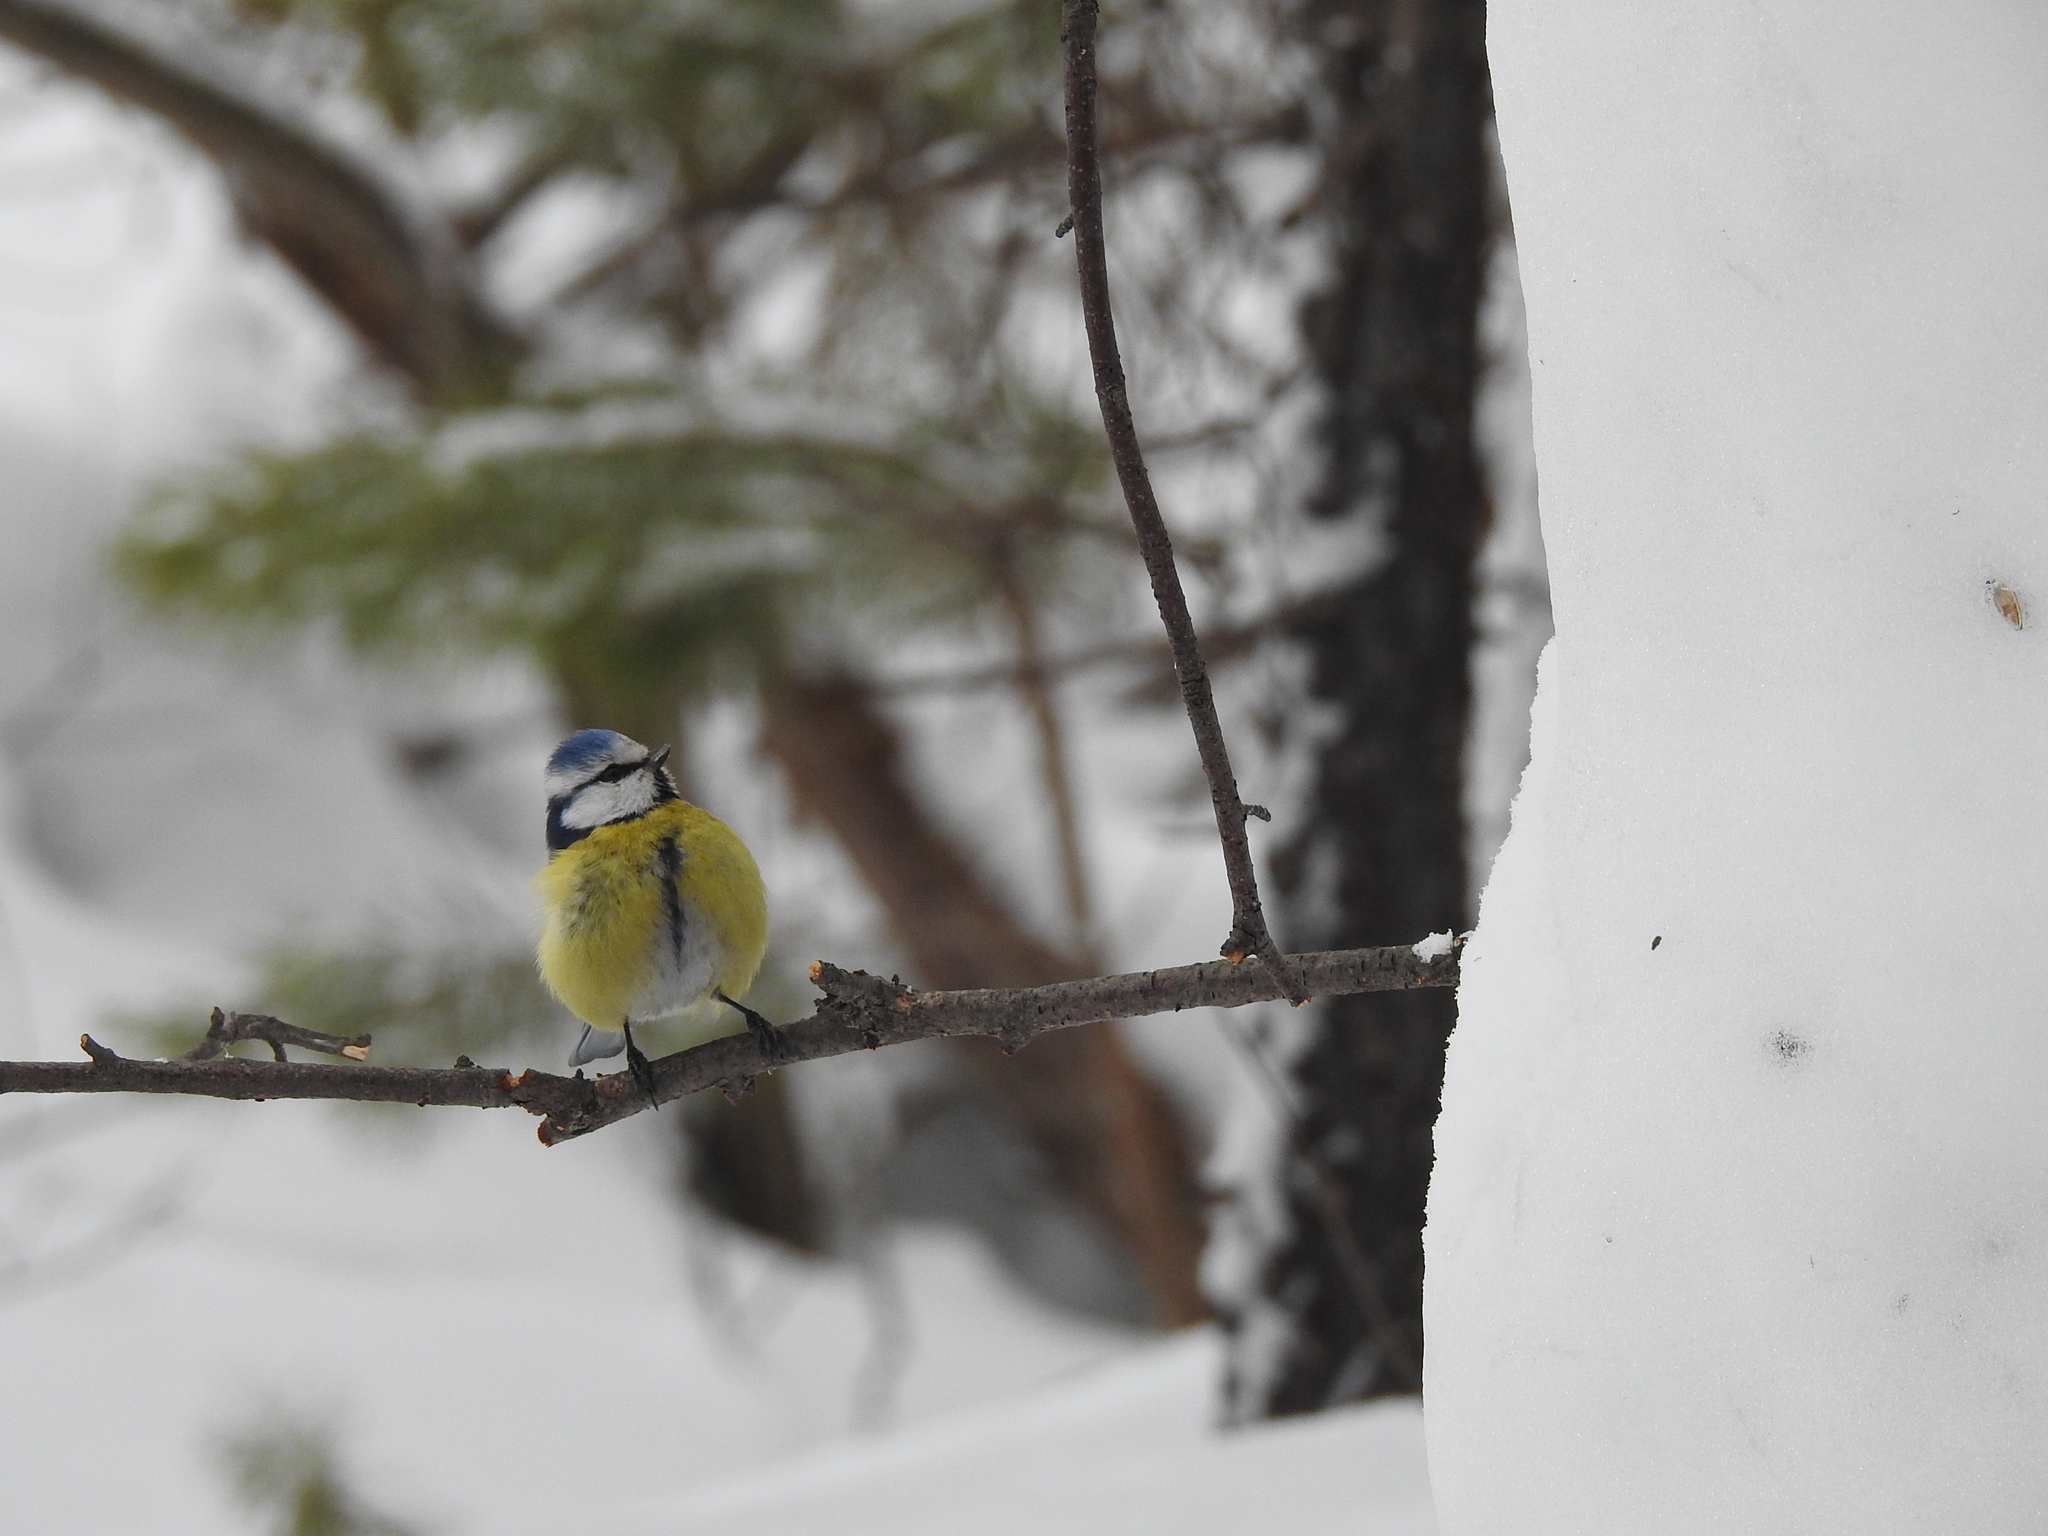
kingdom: Animalia
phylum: Chordata
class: Aves
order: Passeriformes
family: Paridae
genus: Cyanistes
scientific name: Cyanistes caeruleus
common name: Eurasian blue tit
